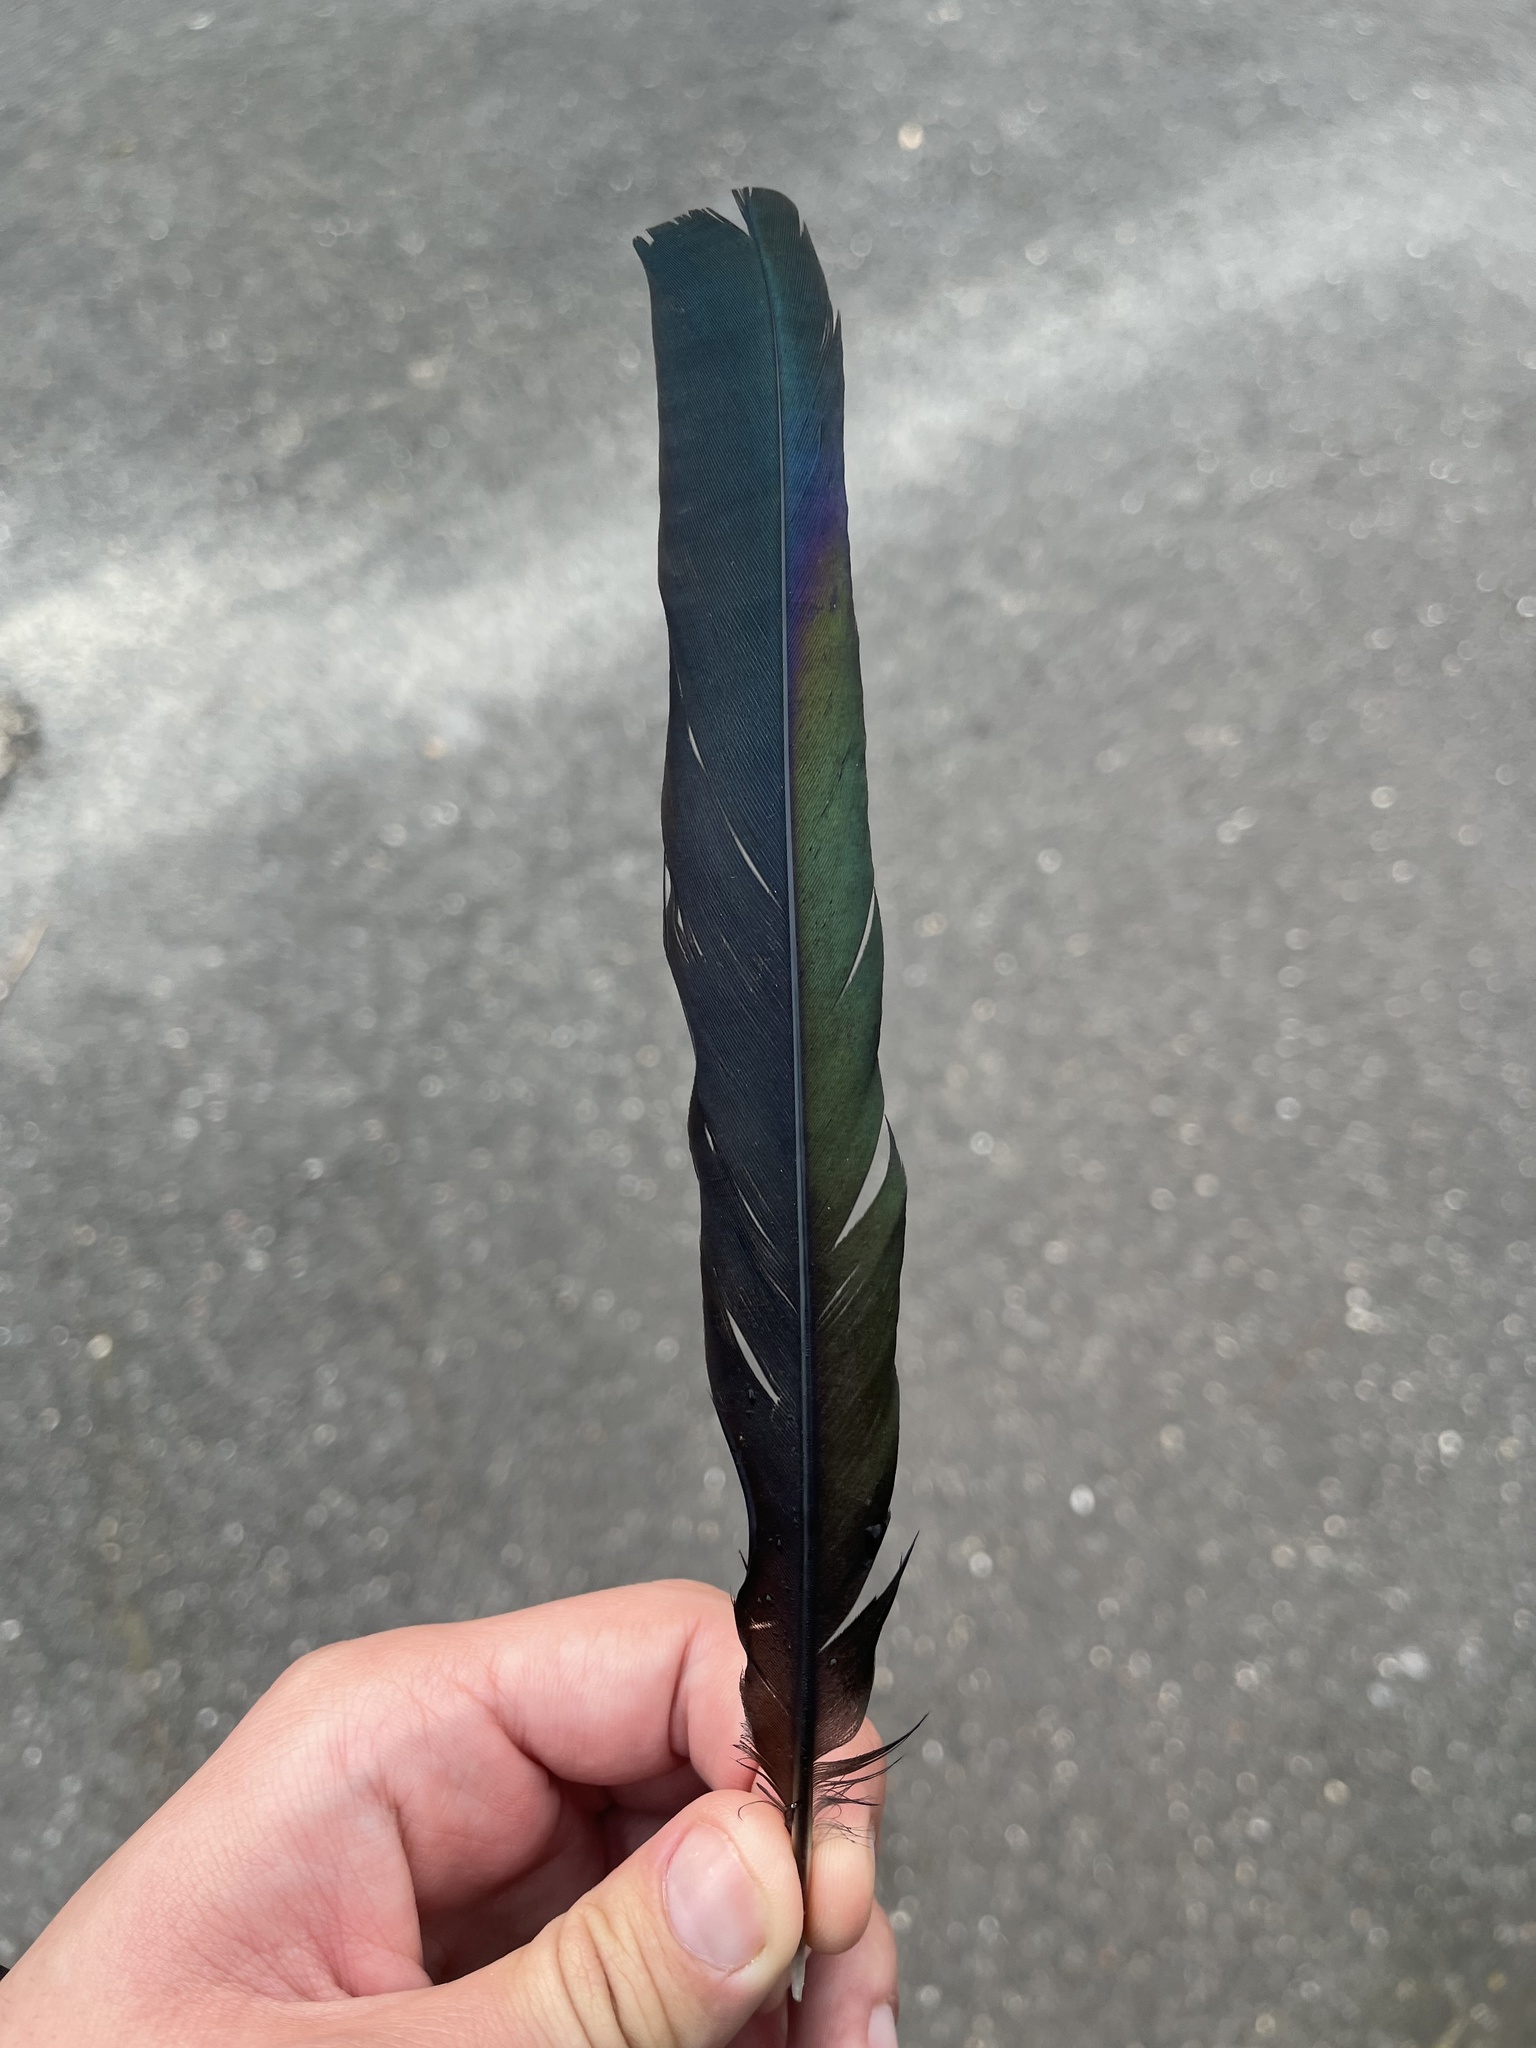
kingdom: Animalia
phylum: Chordata
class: Aves
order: Passeriformes
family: Corvidae
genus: Pica
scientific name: Pica pica
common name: Eurasian magpie
